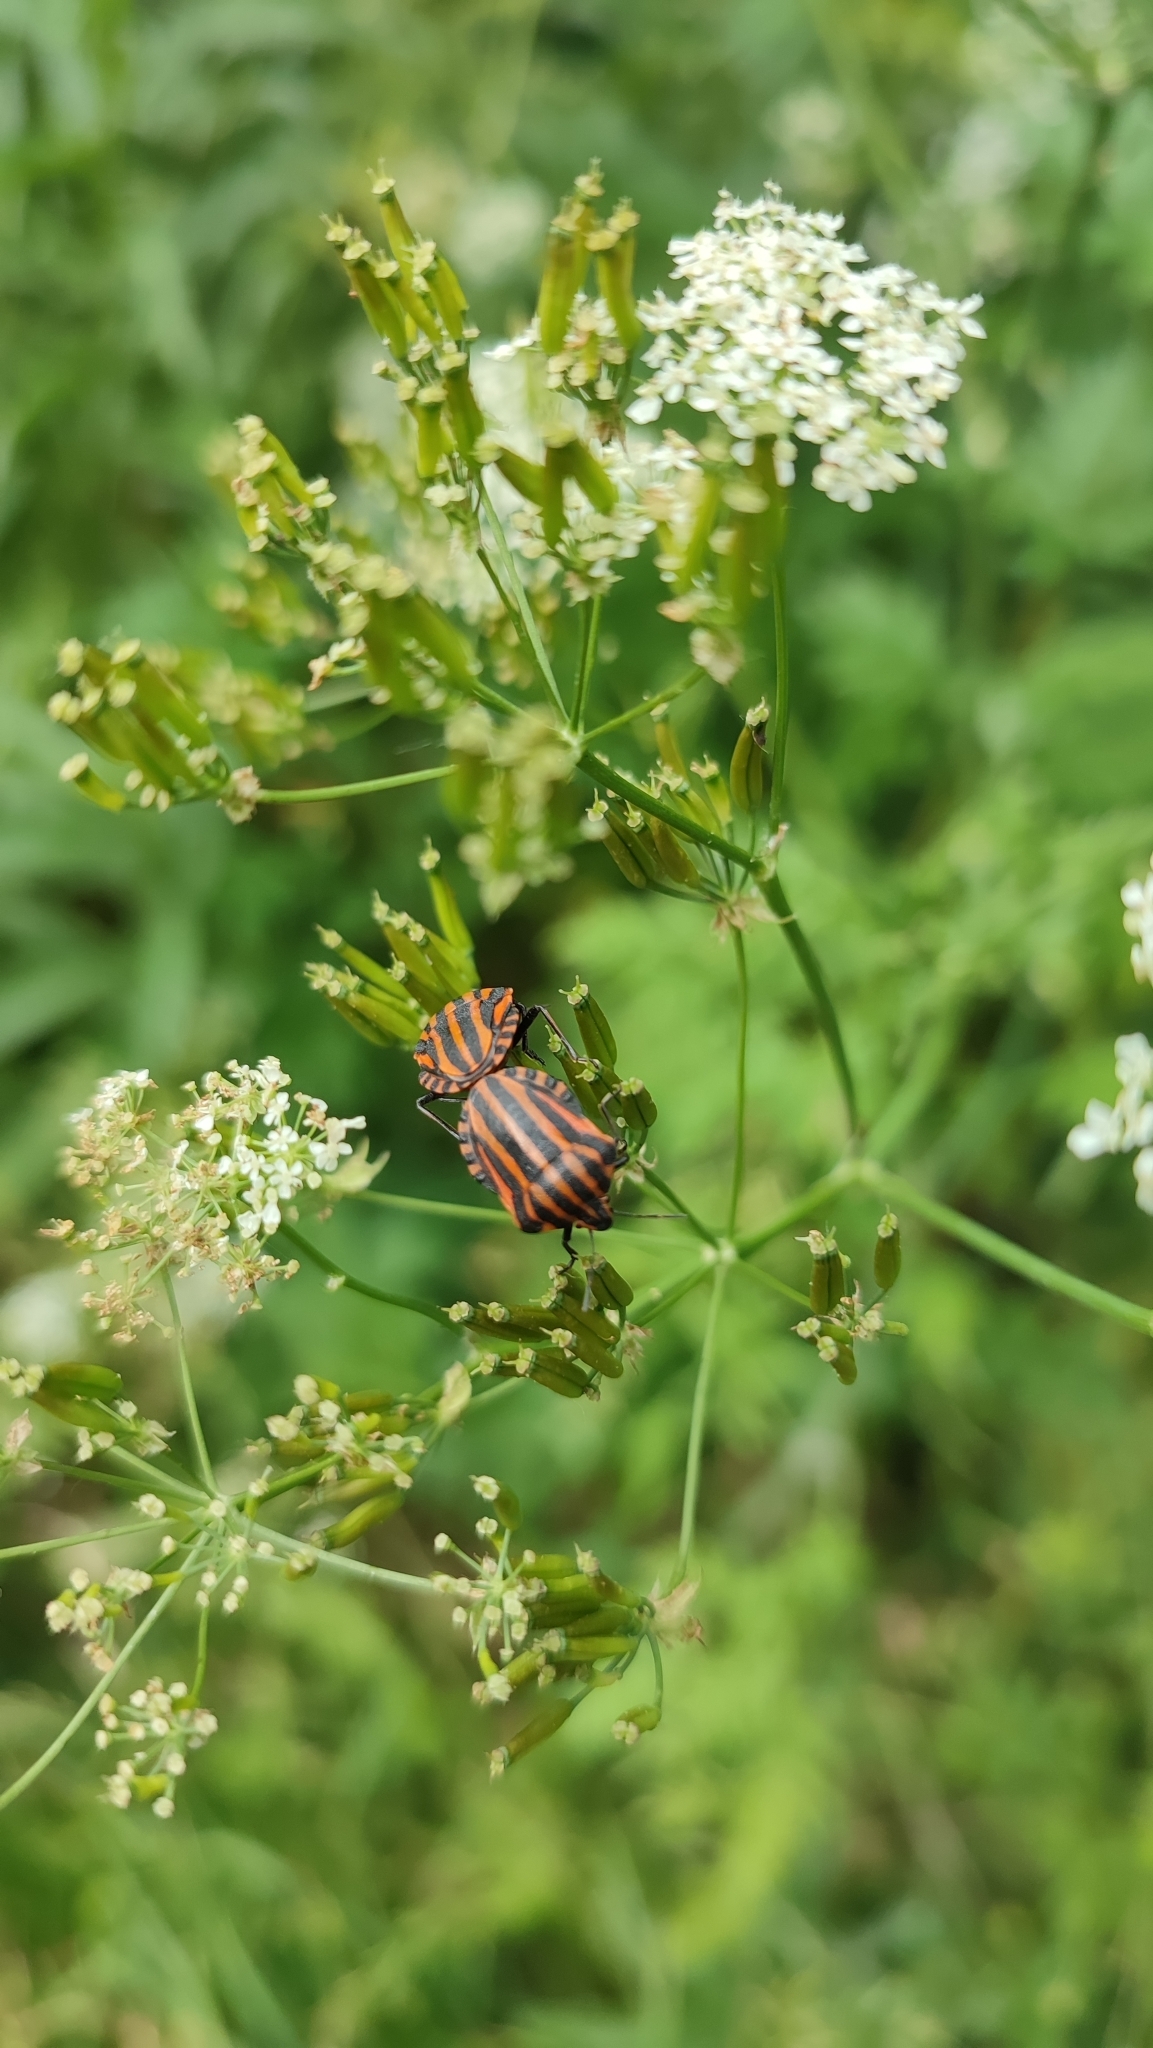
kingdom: Animalia
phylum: Arthropoda
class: Insecta
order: Hemiptera
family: Pentatomidae
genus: Graphosoma
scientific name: Graphosoma italicum
